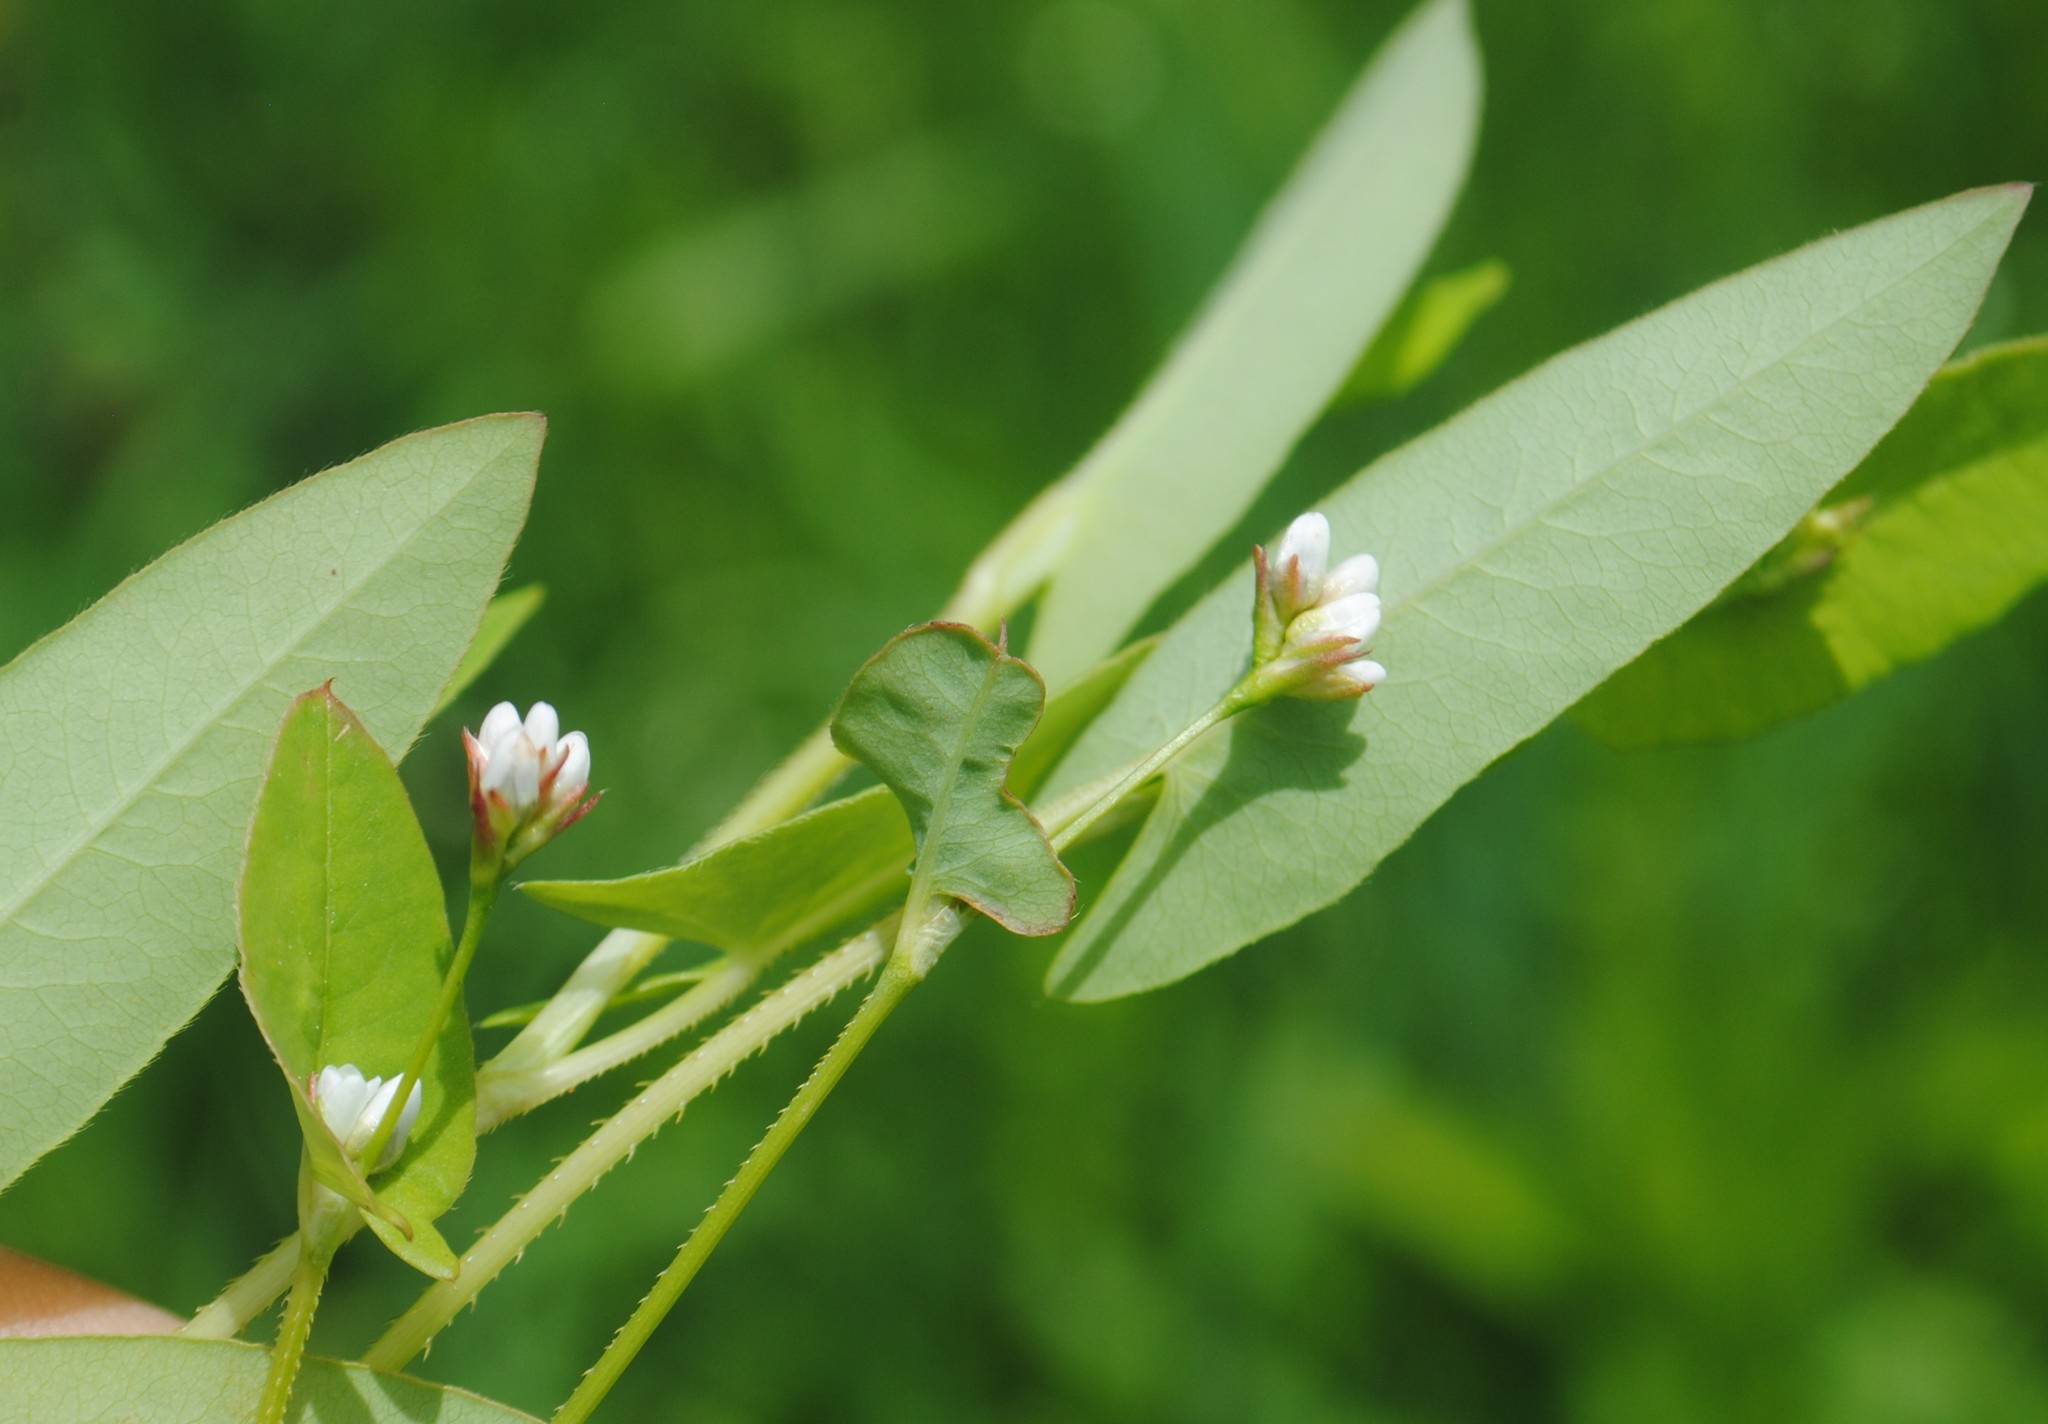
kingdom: Plantae
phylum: Tracheophyta
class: Magnoliopsida
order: Caryophyllales
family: Polygonaceae
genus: Persicaria
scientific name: Persicaria sagittata
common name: American tearthumb
